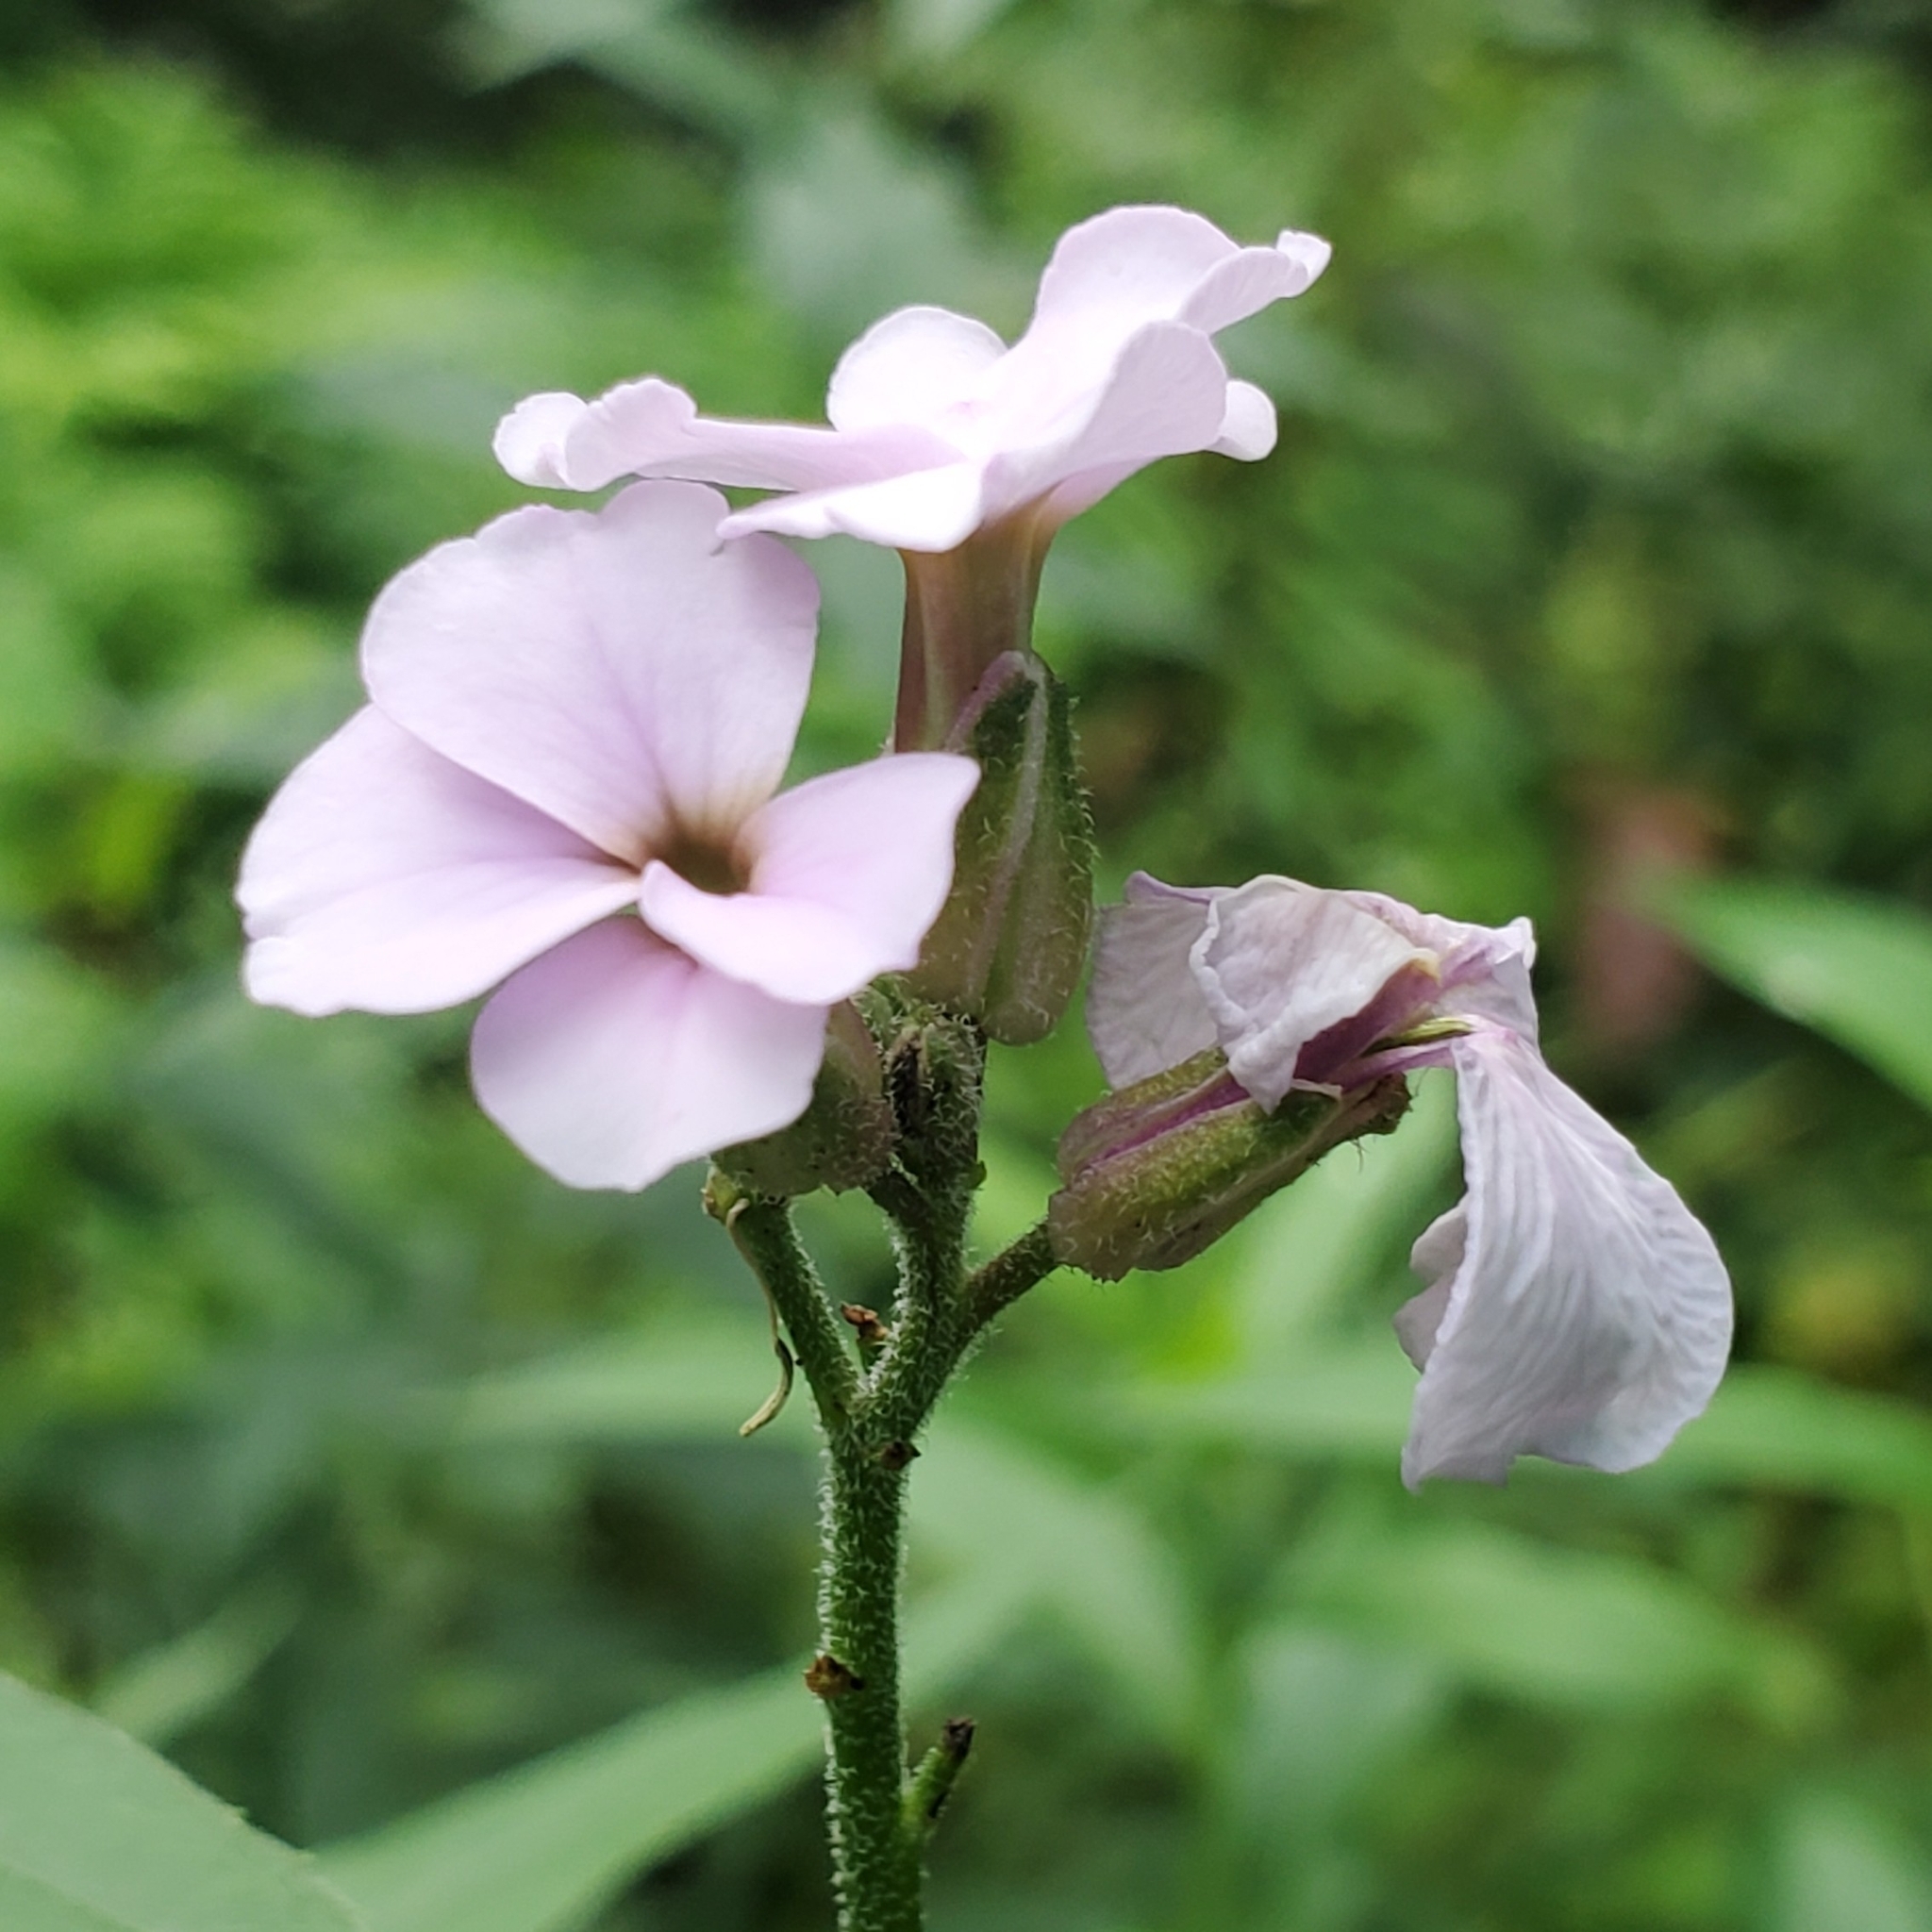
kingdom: Plantae
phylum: Tracheophyta
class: Magnoliopsida
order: Brassicales
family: Brassicaceae
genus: Hesperis
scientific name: Hesperis matronalis
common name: Dame's-violet
